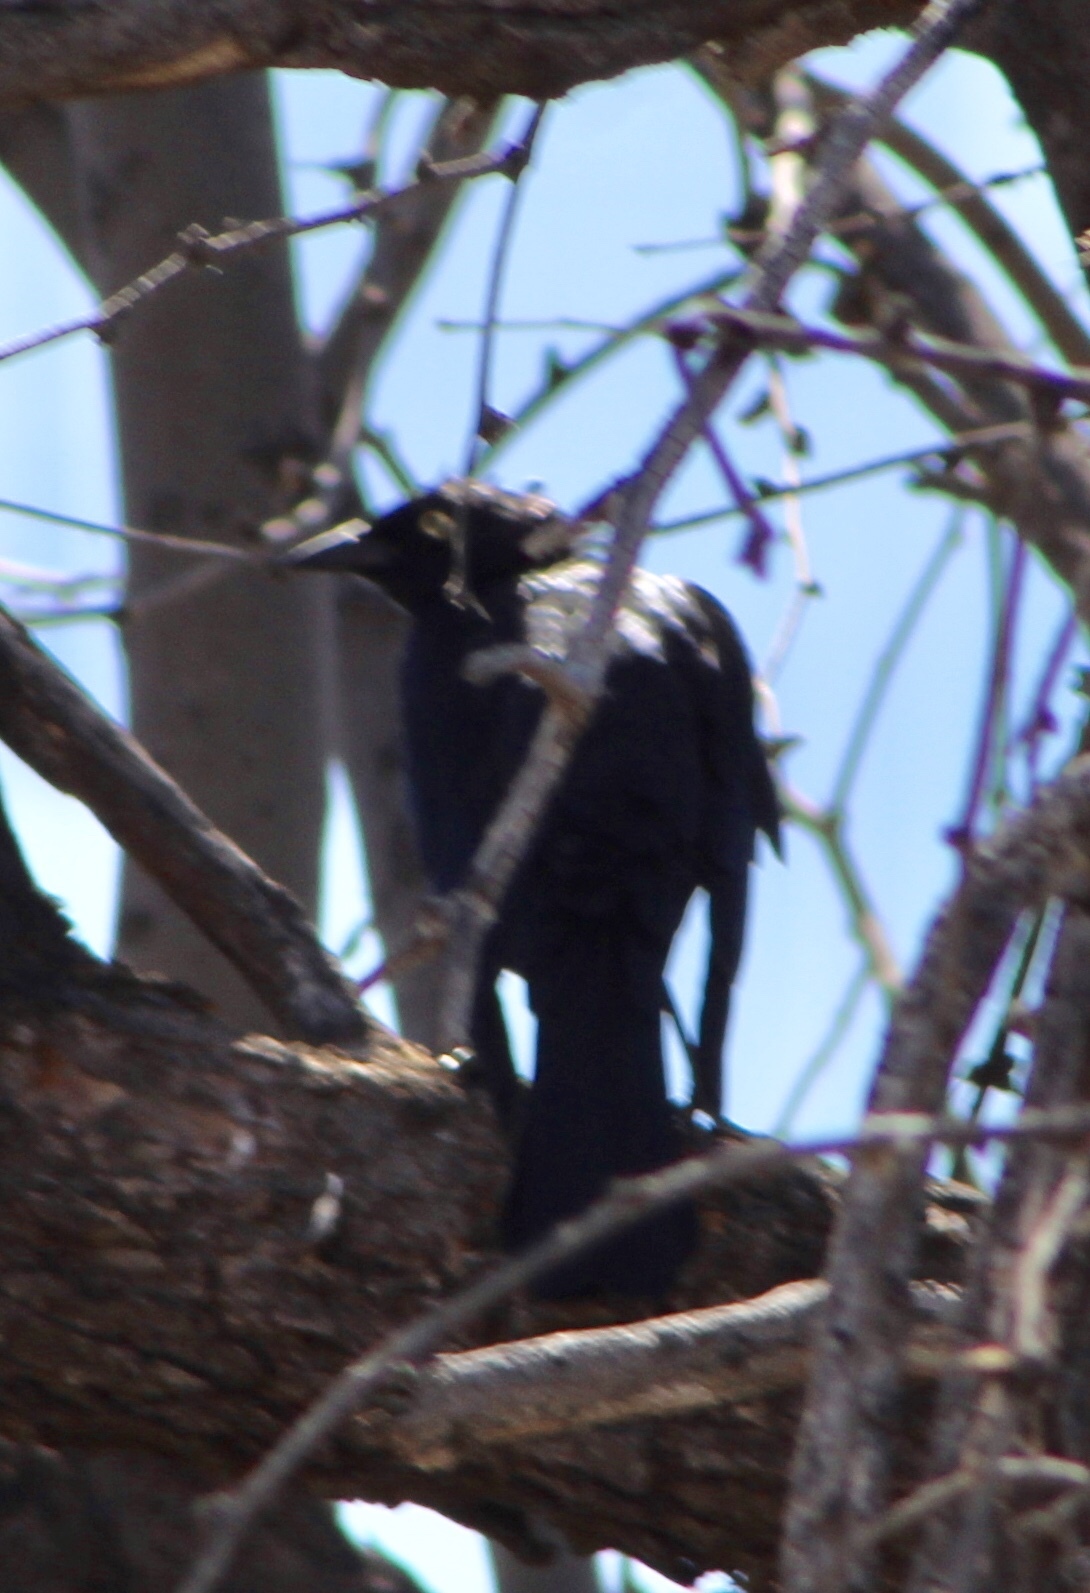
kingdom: Animalia
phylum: Chordata
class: Aves
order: Passeriformes
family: Icteridae
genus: Quiscalus
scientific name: Quiscalus mexicanus
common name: Great-tailed grackle
